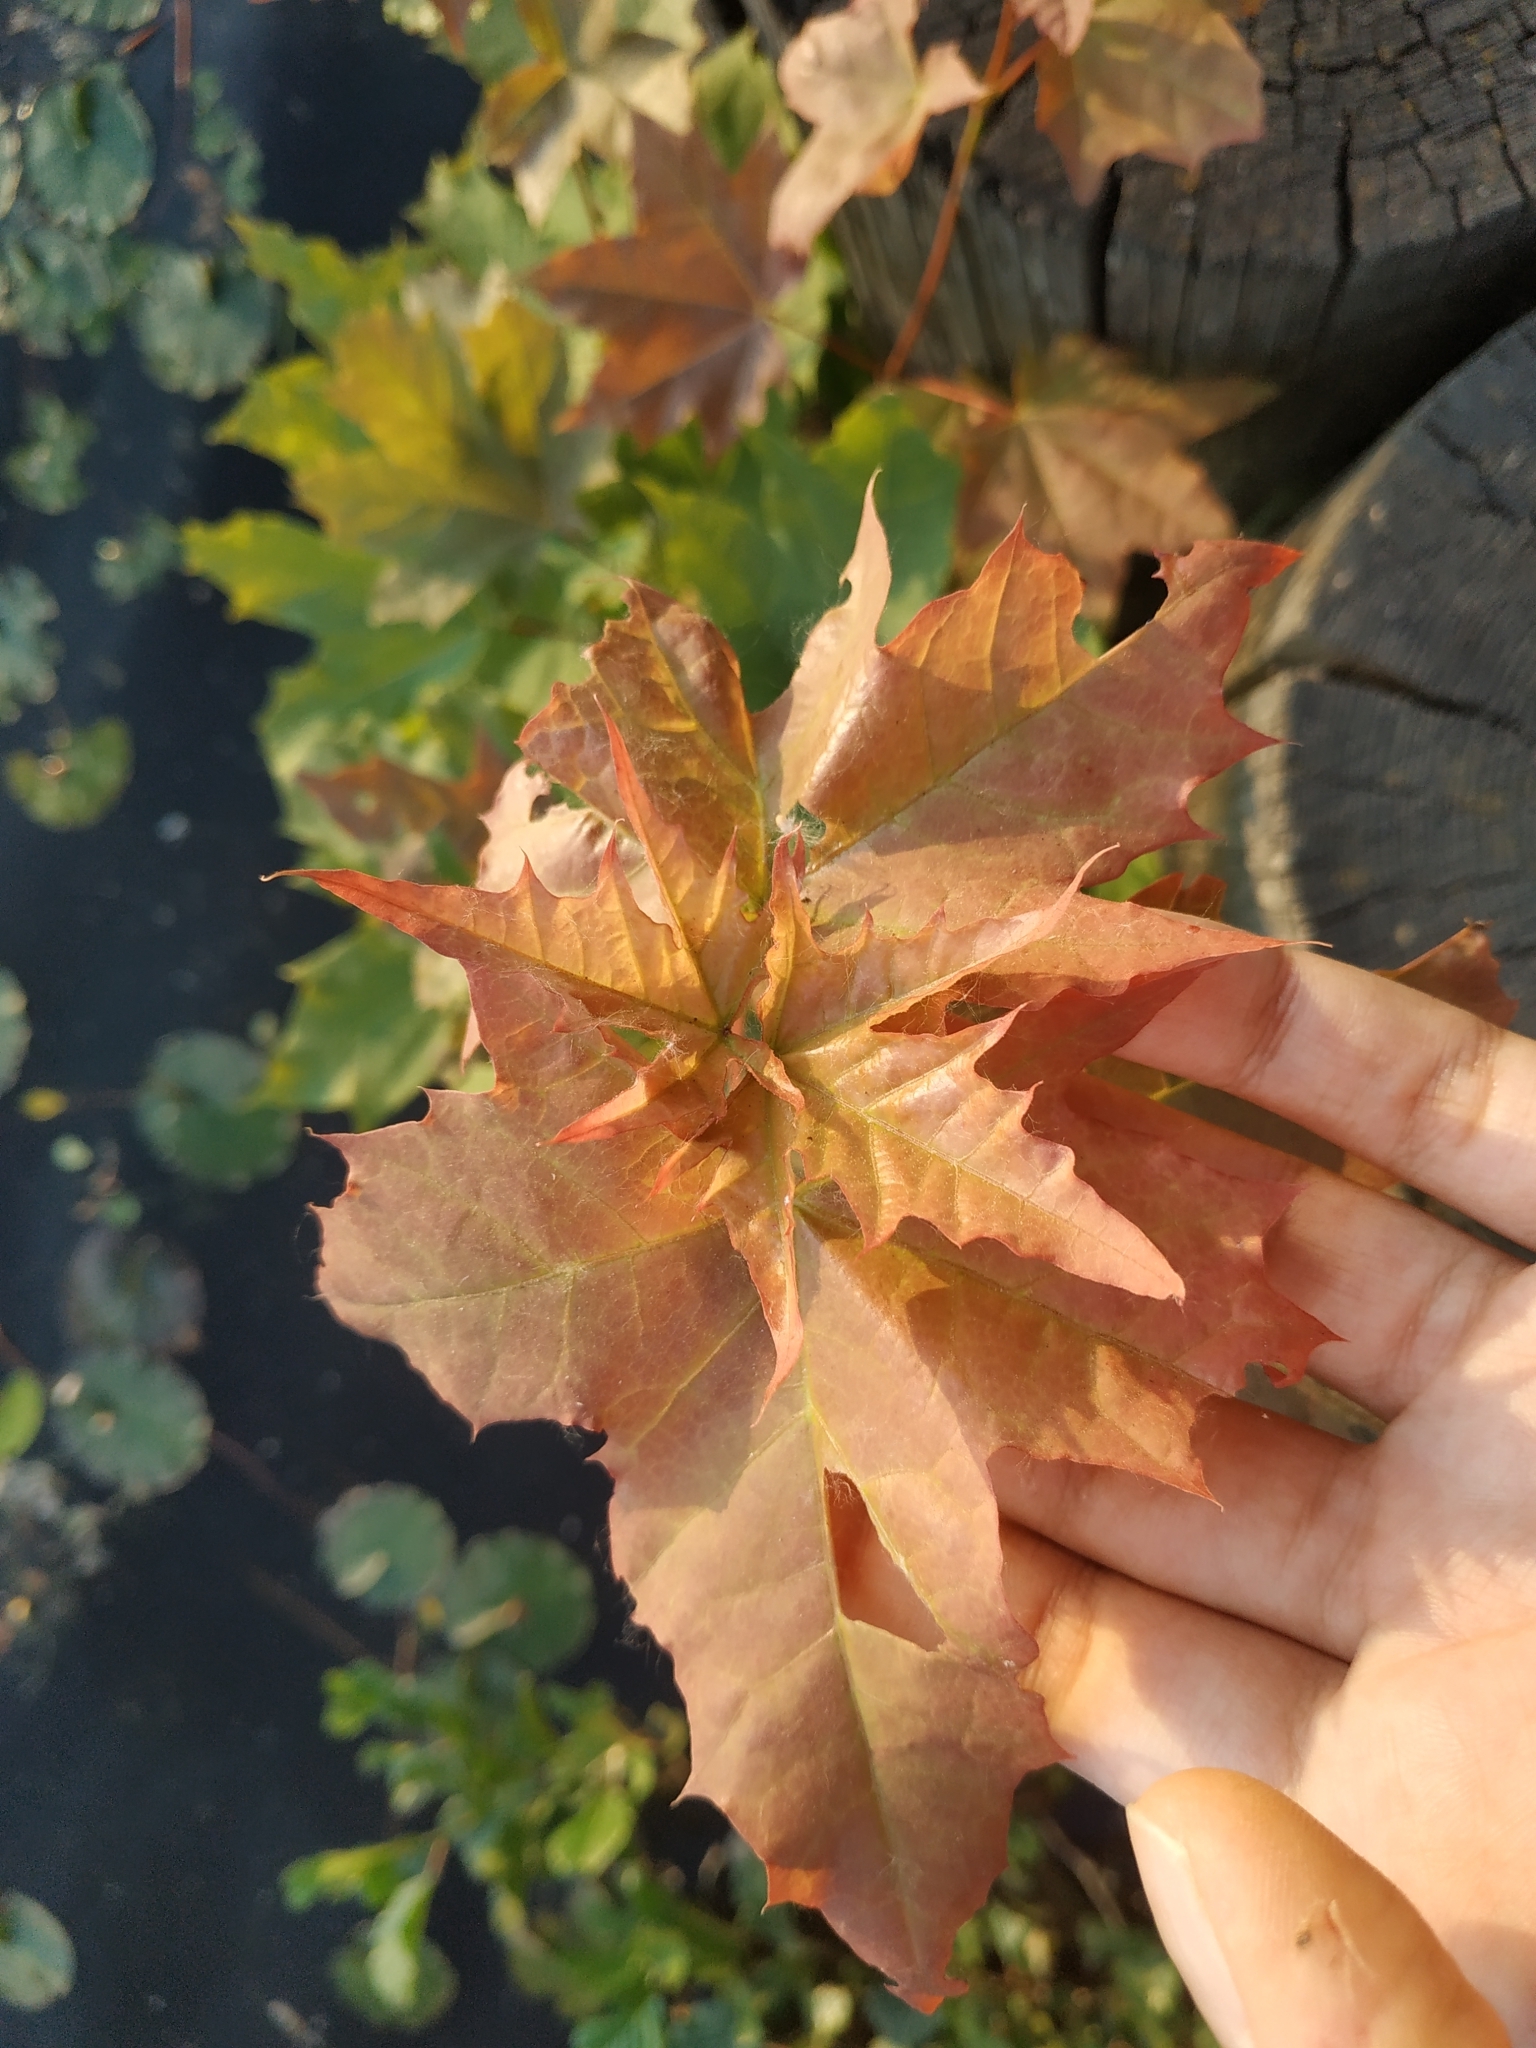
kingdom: Plantae
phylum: Tracheophyta
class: Magnoliopsida
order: Sapindales
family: Sapindaceae
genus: Acer
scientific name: Acer platanoides
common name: Norway maple
